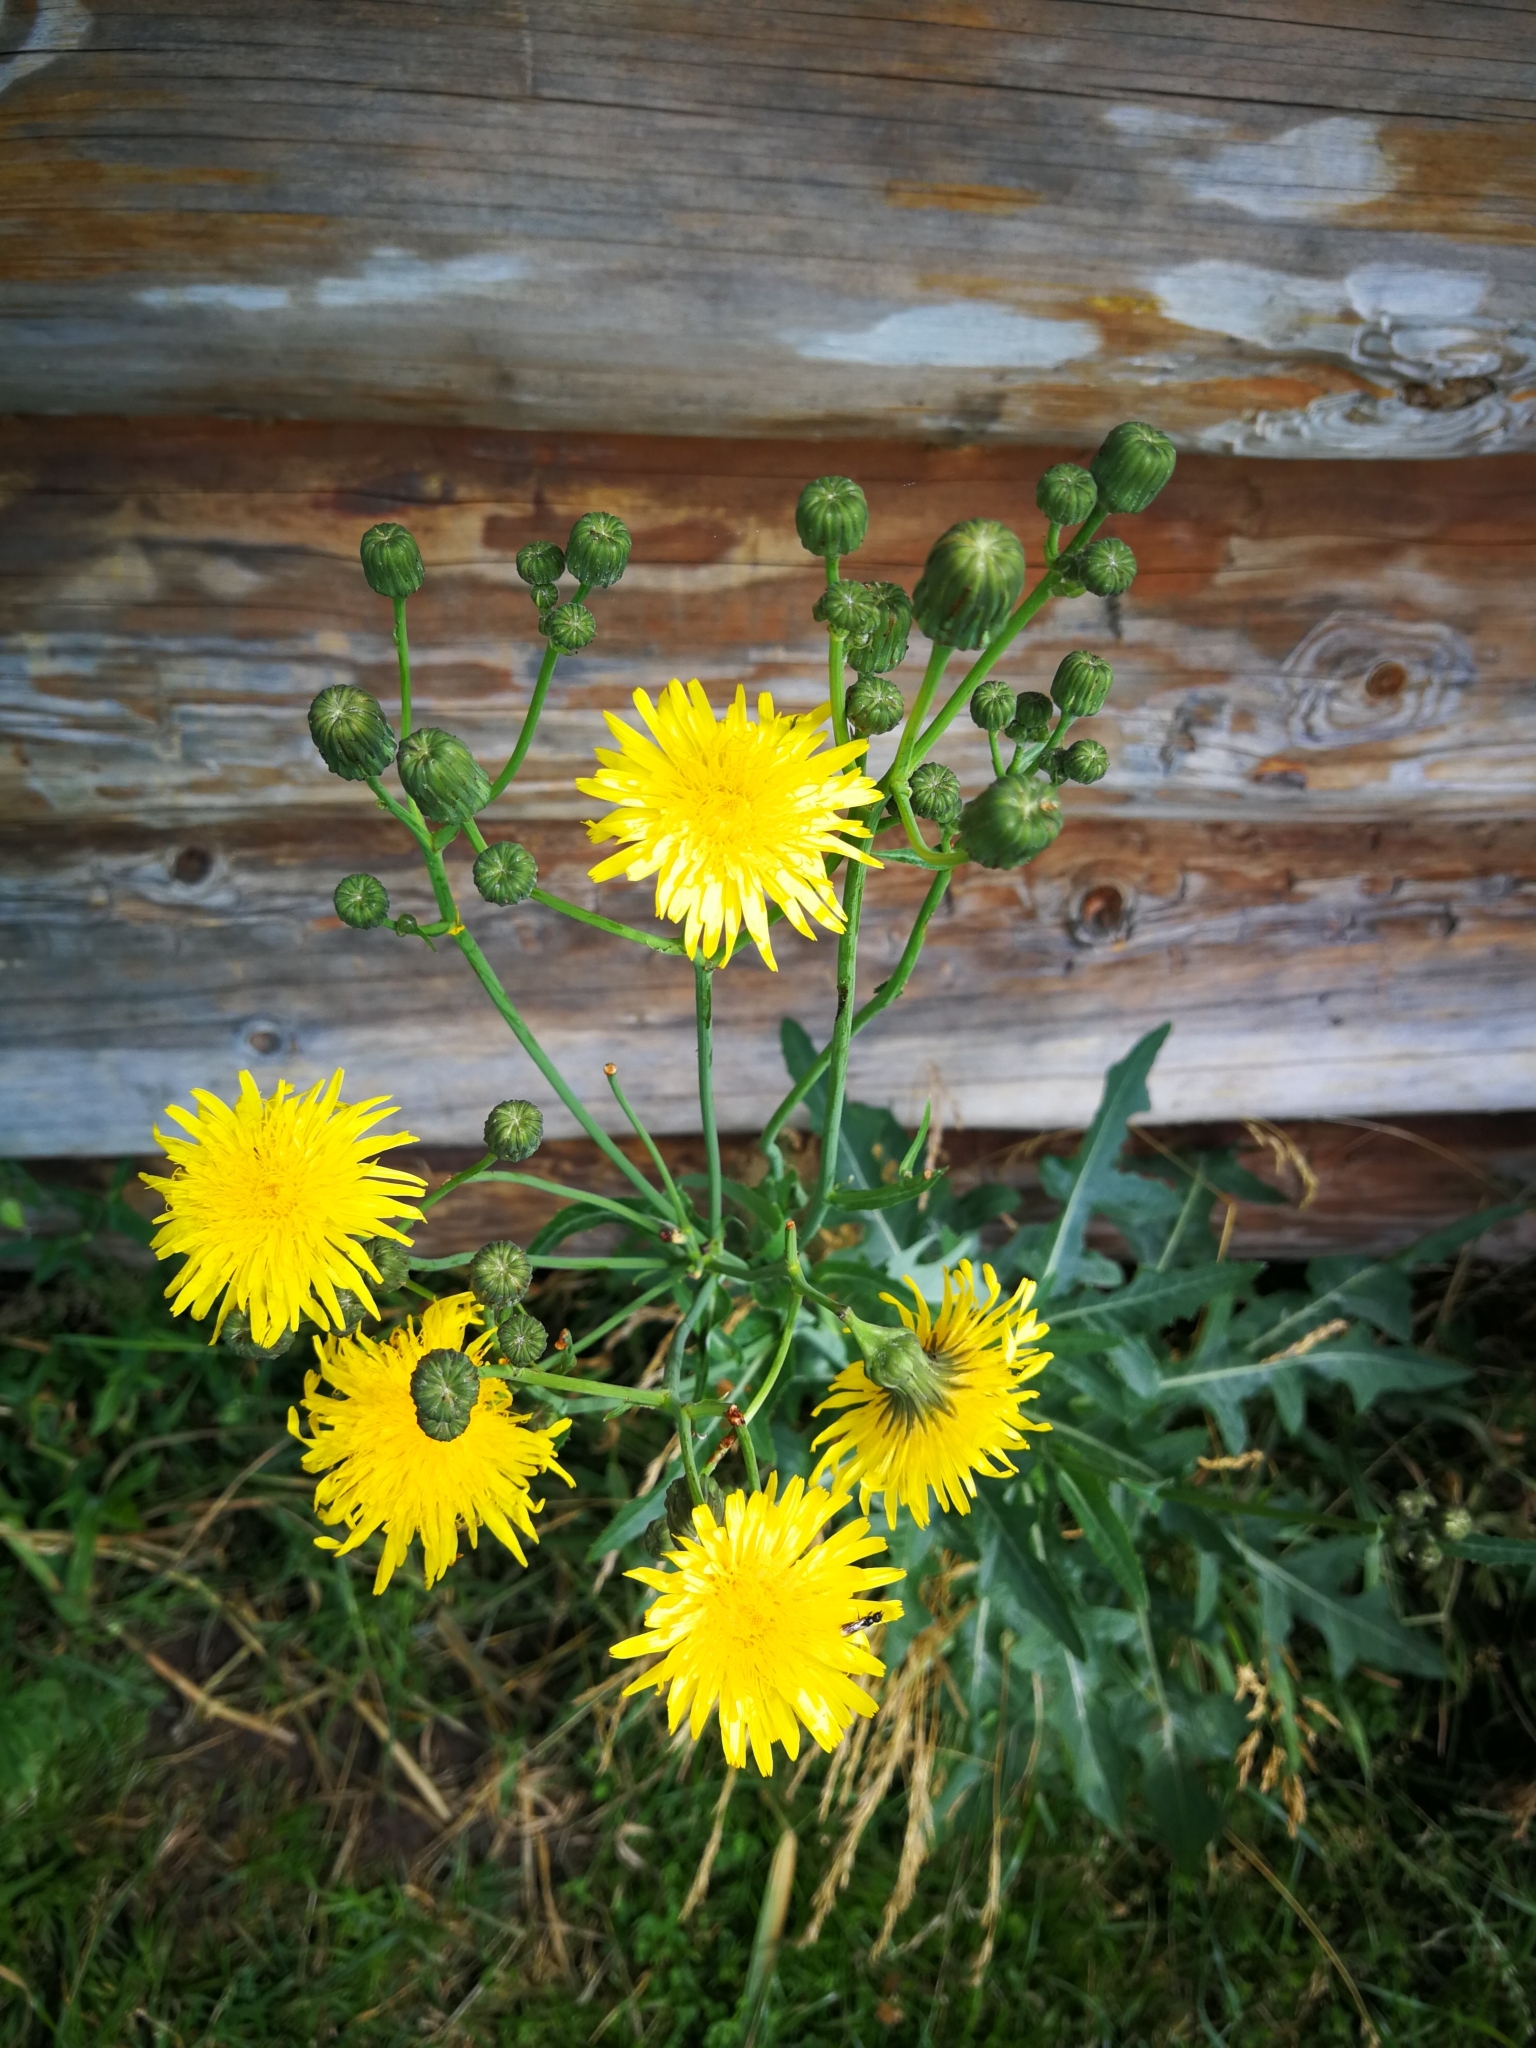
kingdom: Plantae
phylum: Tracheophyta
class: Magnoliopsida
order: Asterales
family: Asteraceae
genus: Sonchus
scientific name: Sonchus arvensis
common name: Perennial sow-thistle
